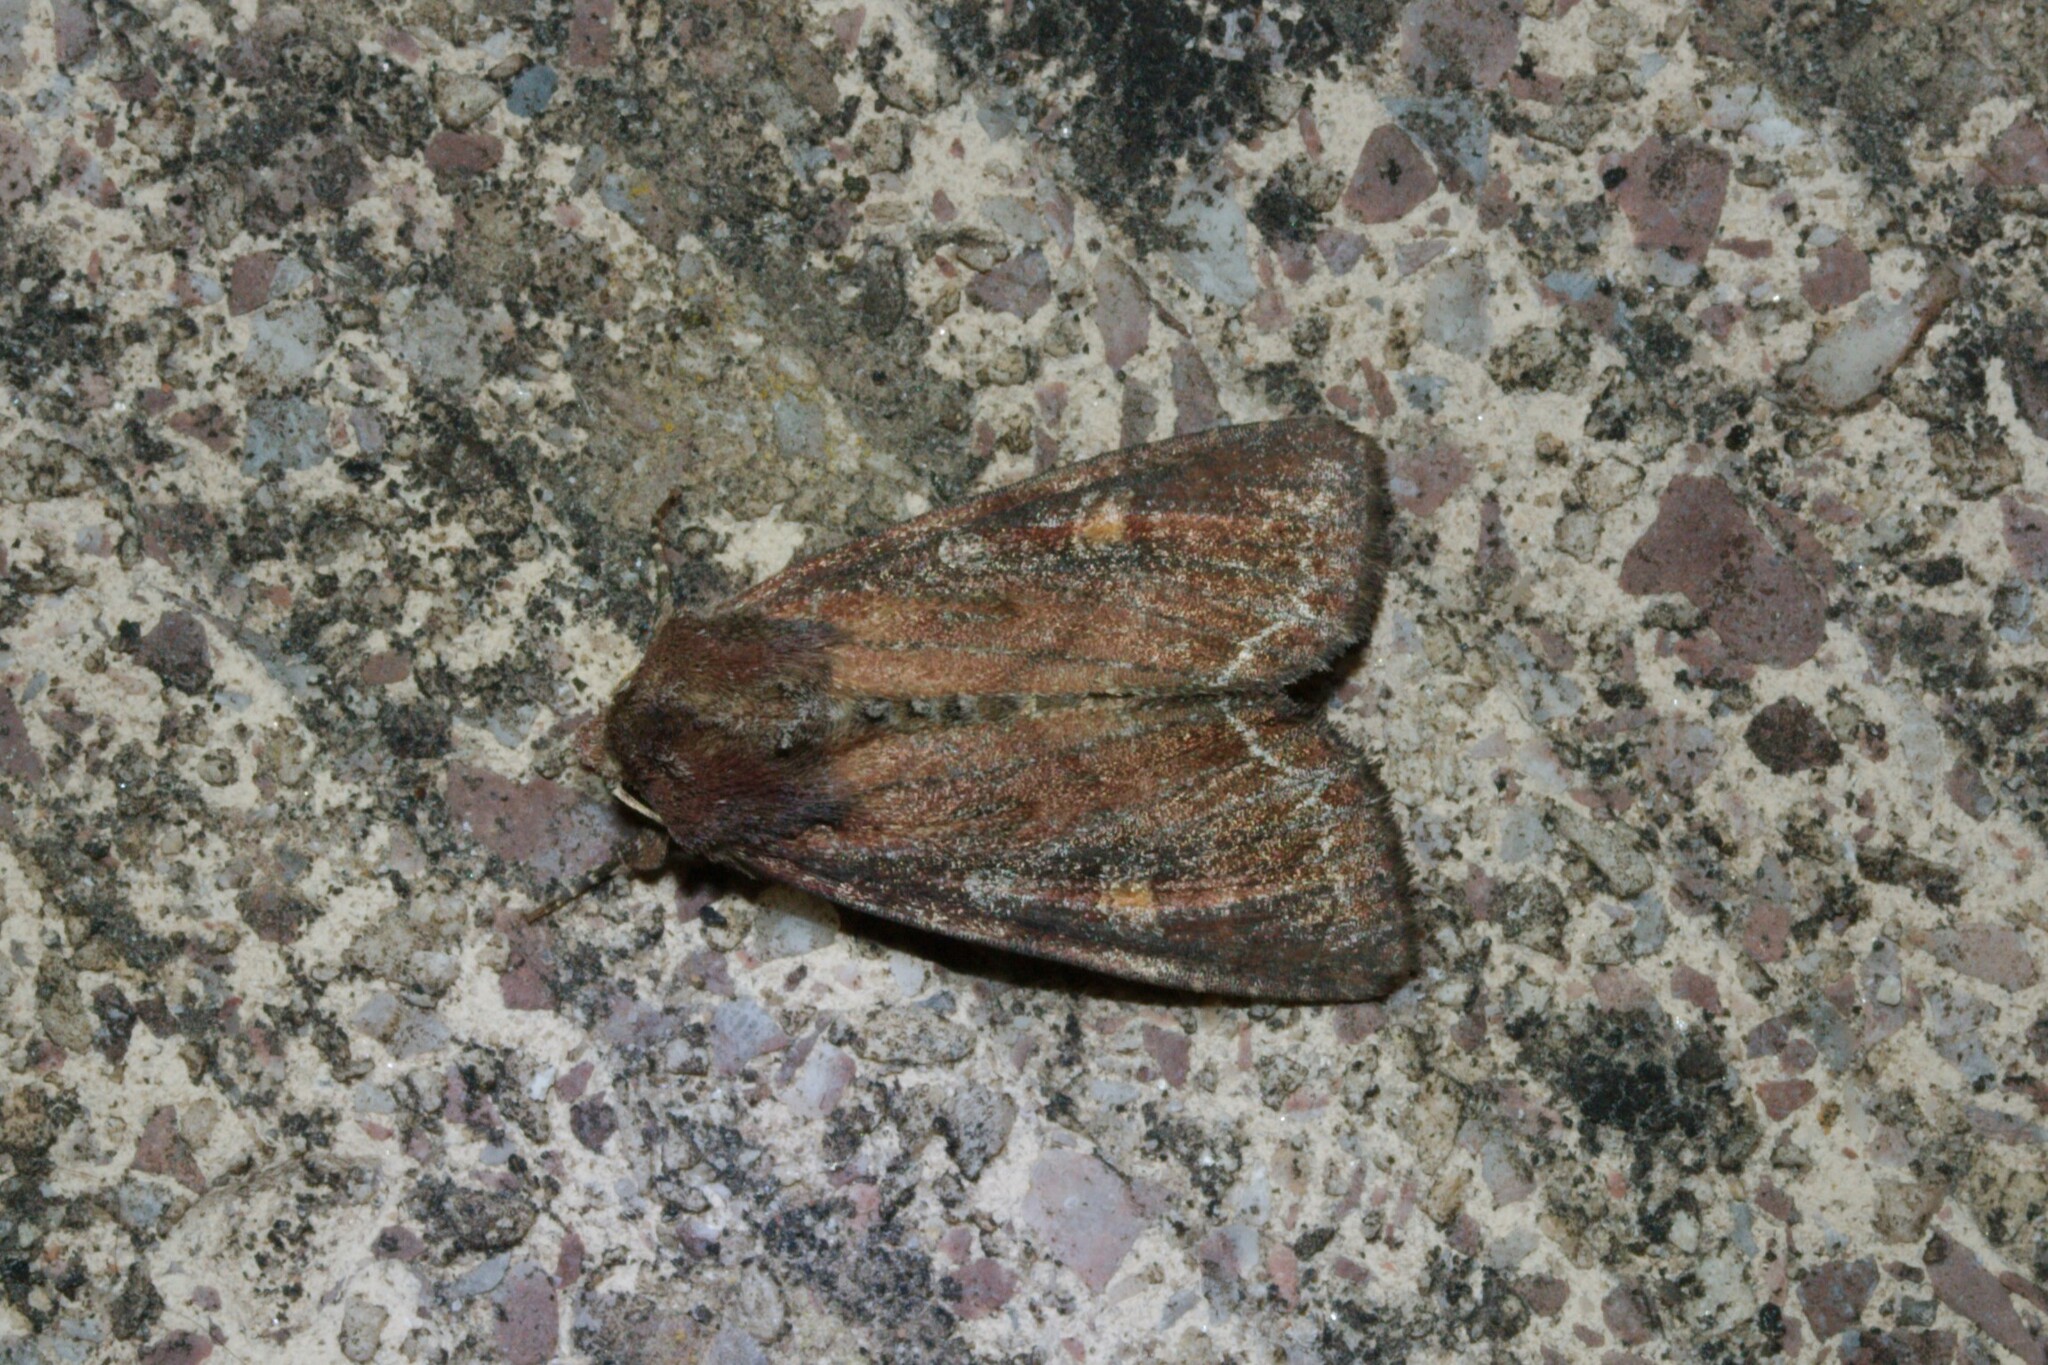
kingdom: Animalia
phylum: Arthropoda
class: Insecta
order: Lepidoptera
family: Noctuidae
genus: Lacanobia
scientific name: Lacanobia oleracea
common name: Bright-line brown-eye
